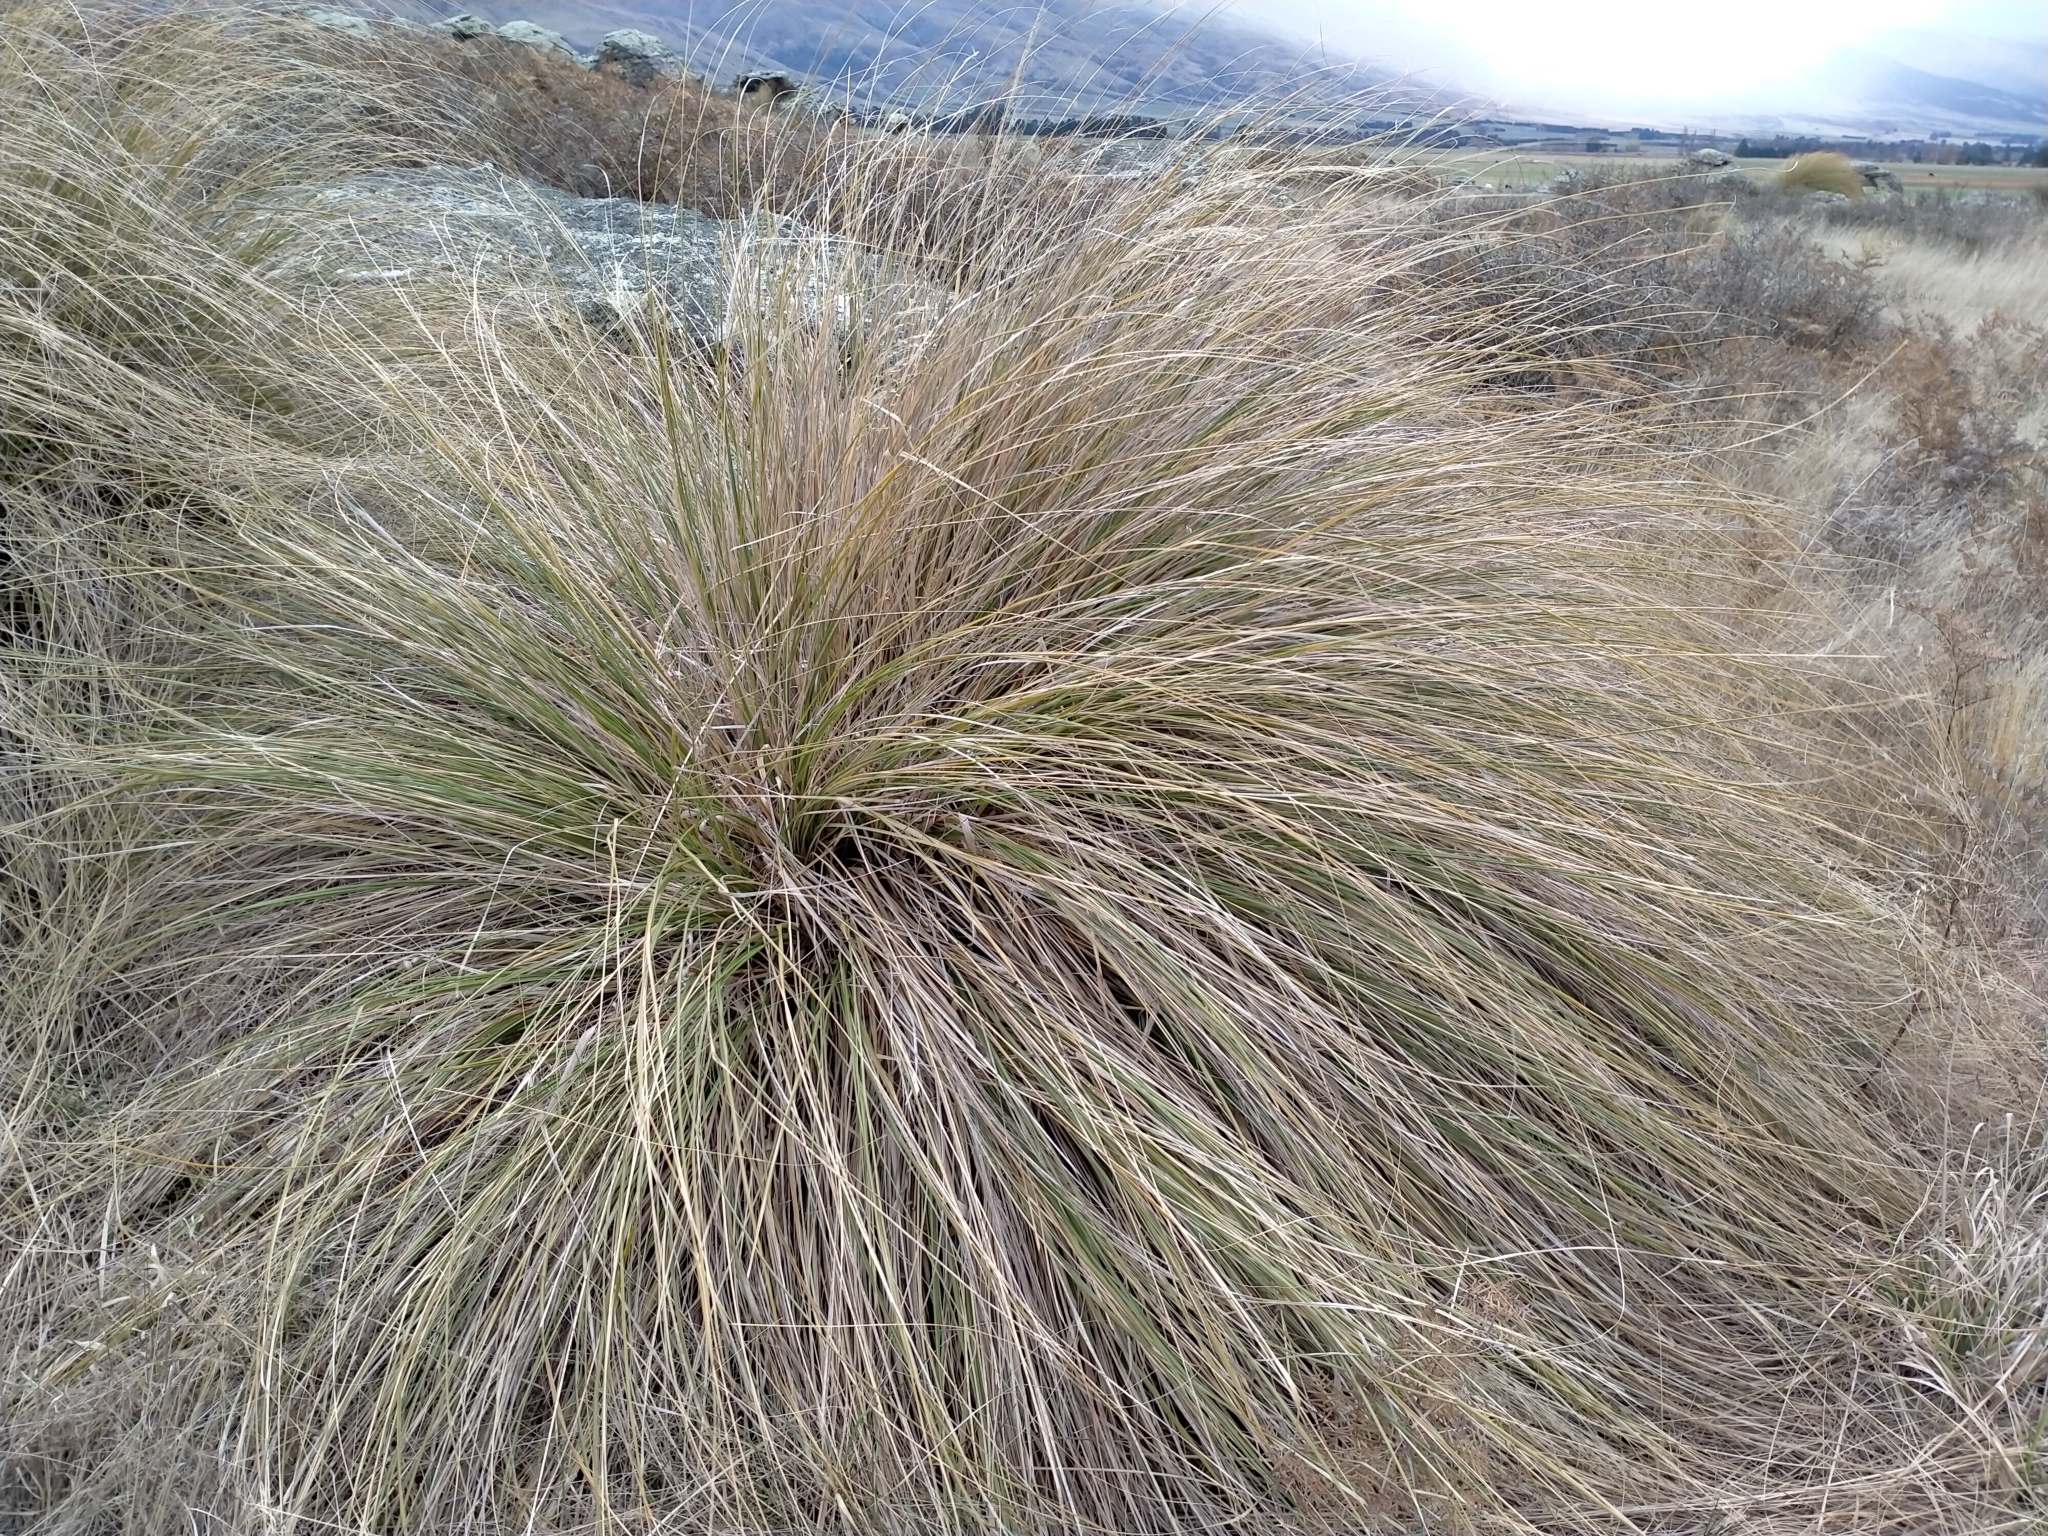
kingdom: Plantae
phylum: Tracheophyta
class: Liliopsida
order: Poales
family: Poaceae
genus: Chionochloa
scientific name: Chionochloa rigida
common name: Narrow leaved snow tussock
